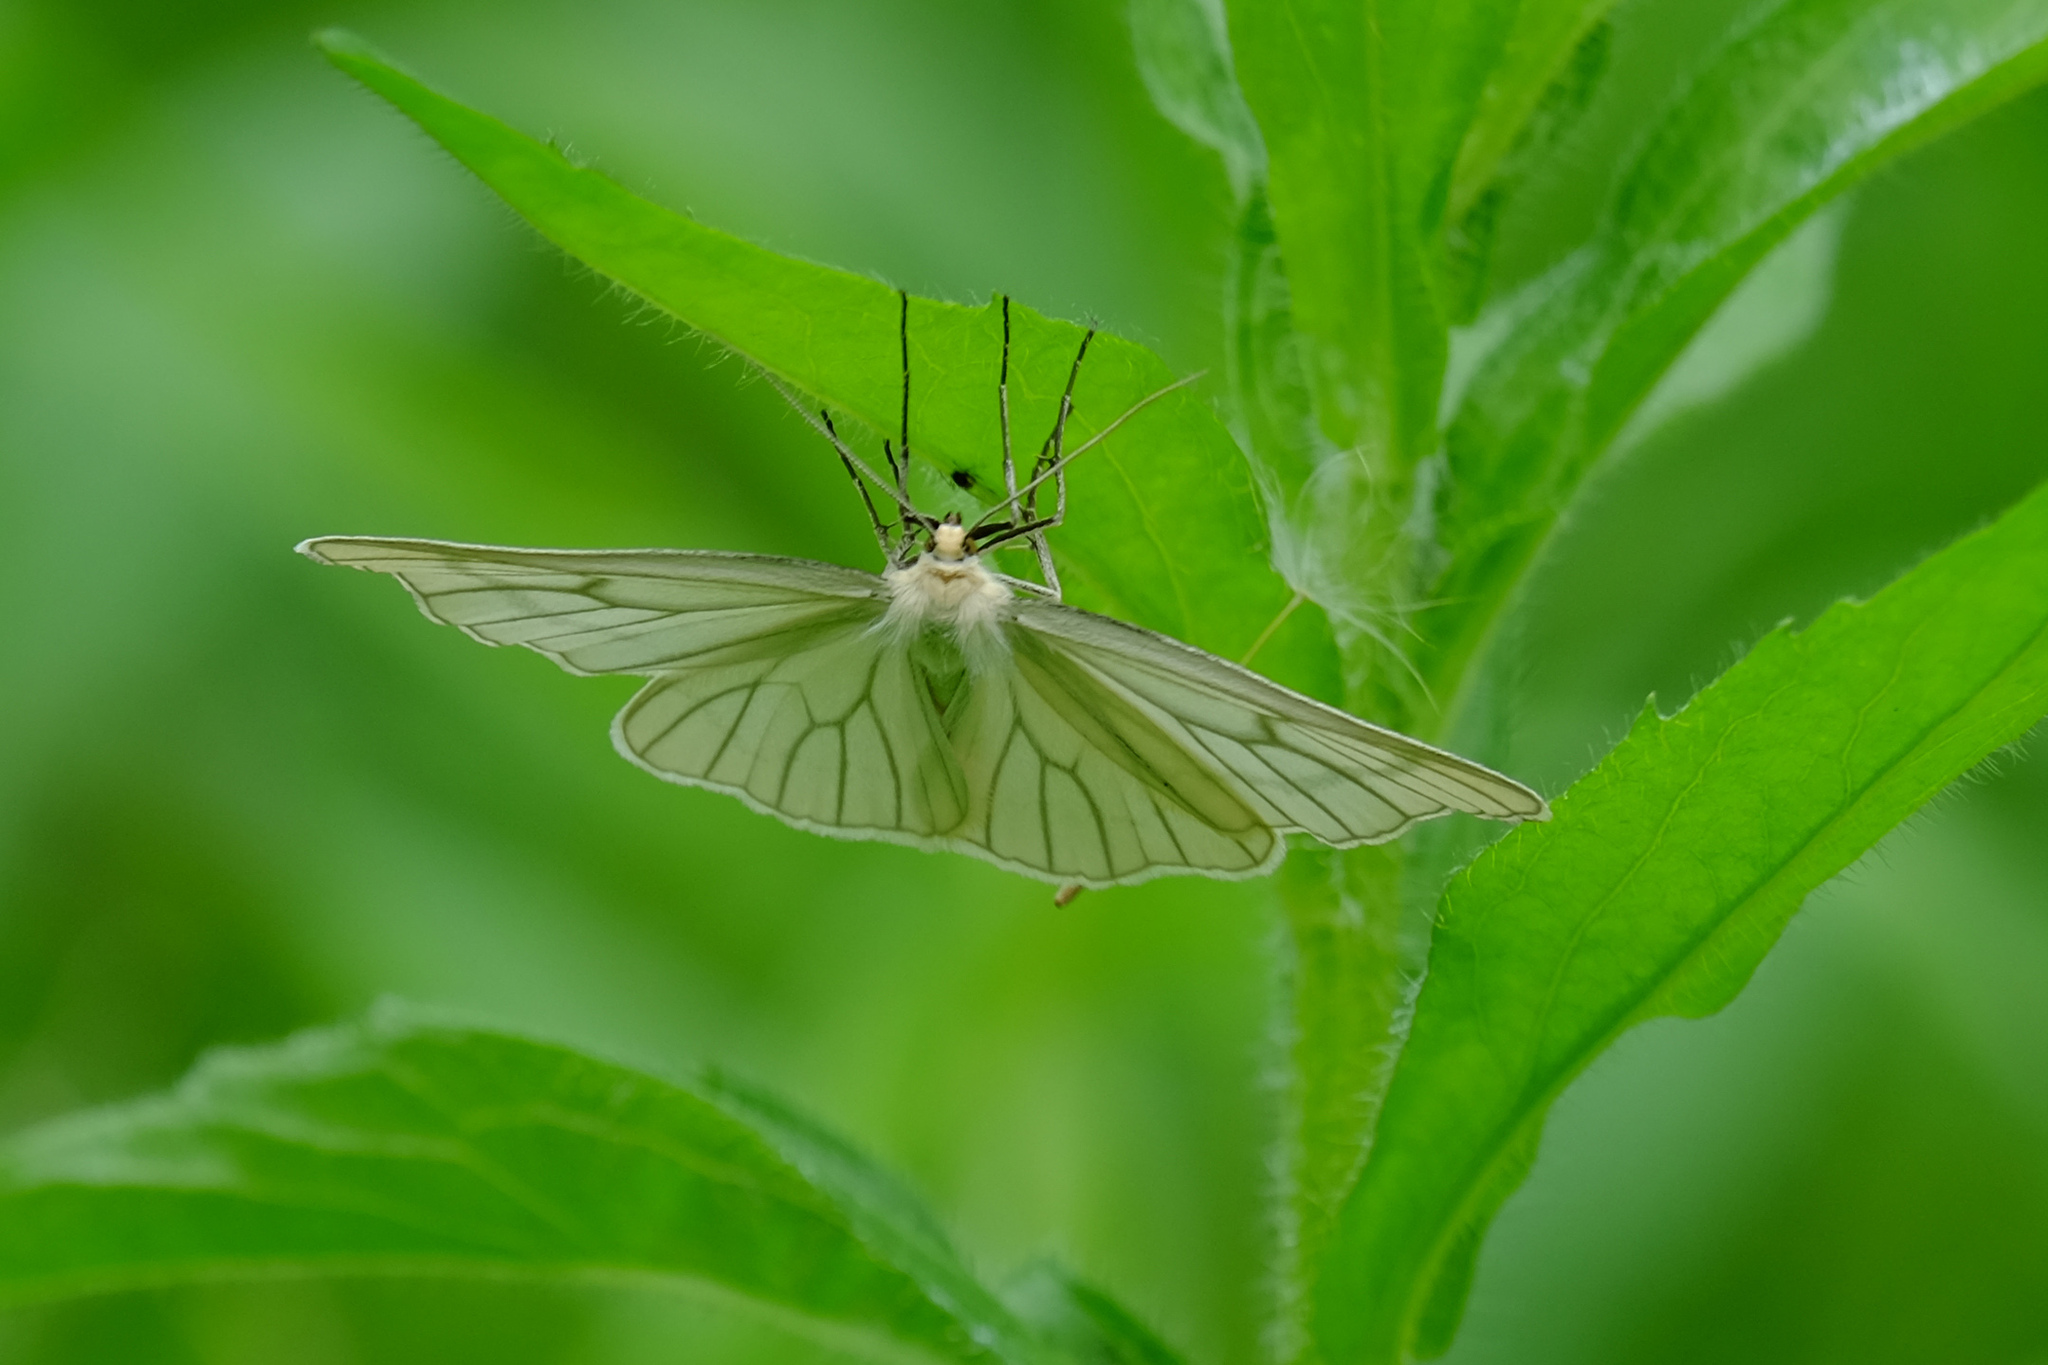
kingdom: Animalia
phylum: Arthropoda
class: Insecta
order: Lepidoptera
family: Geometridae
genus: Siona
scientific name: Siona lineata
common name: Black-veined moth
